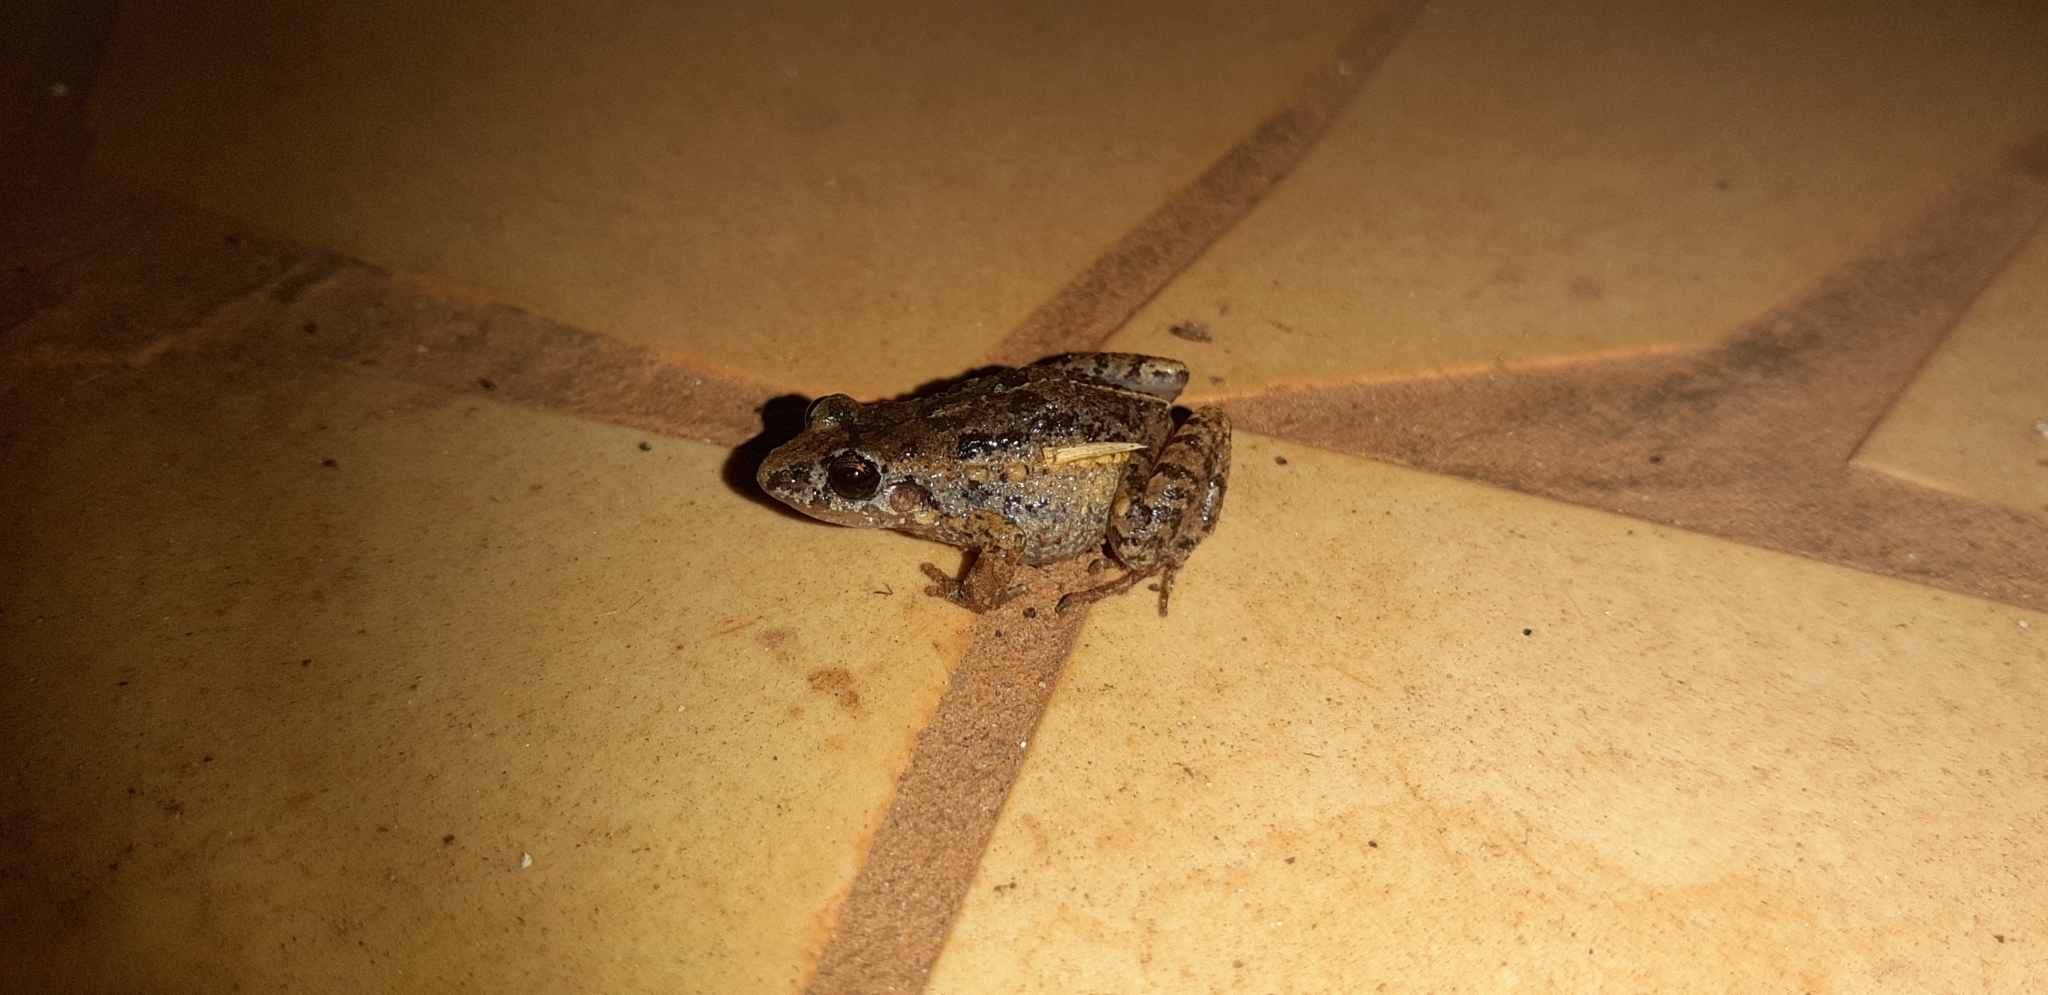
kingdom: Animalia
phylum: Chordata
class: Amphibia
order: Anura
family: Leptodactylidae
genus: Adenomera
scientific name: Adenomera chicomendesi
